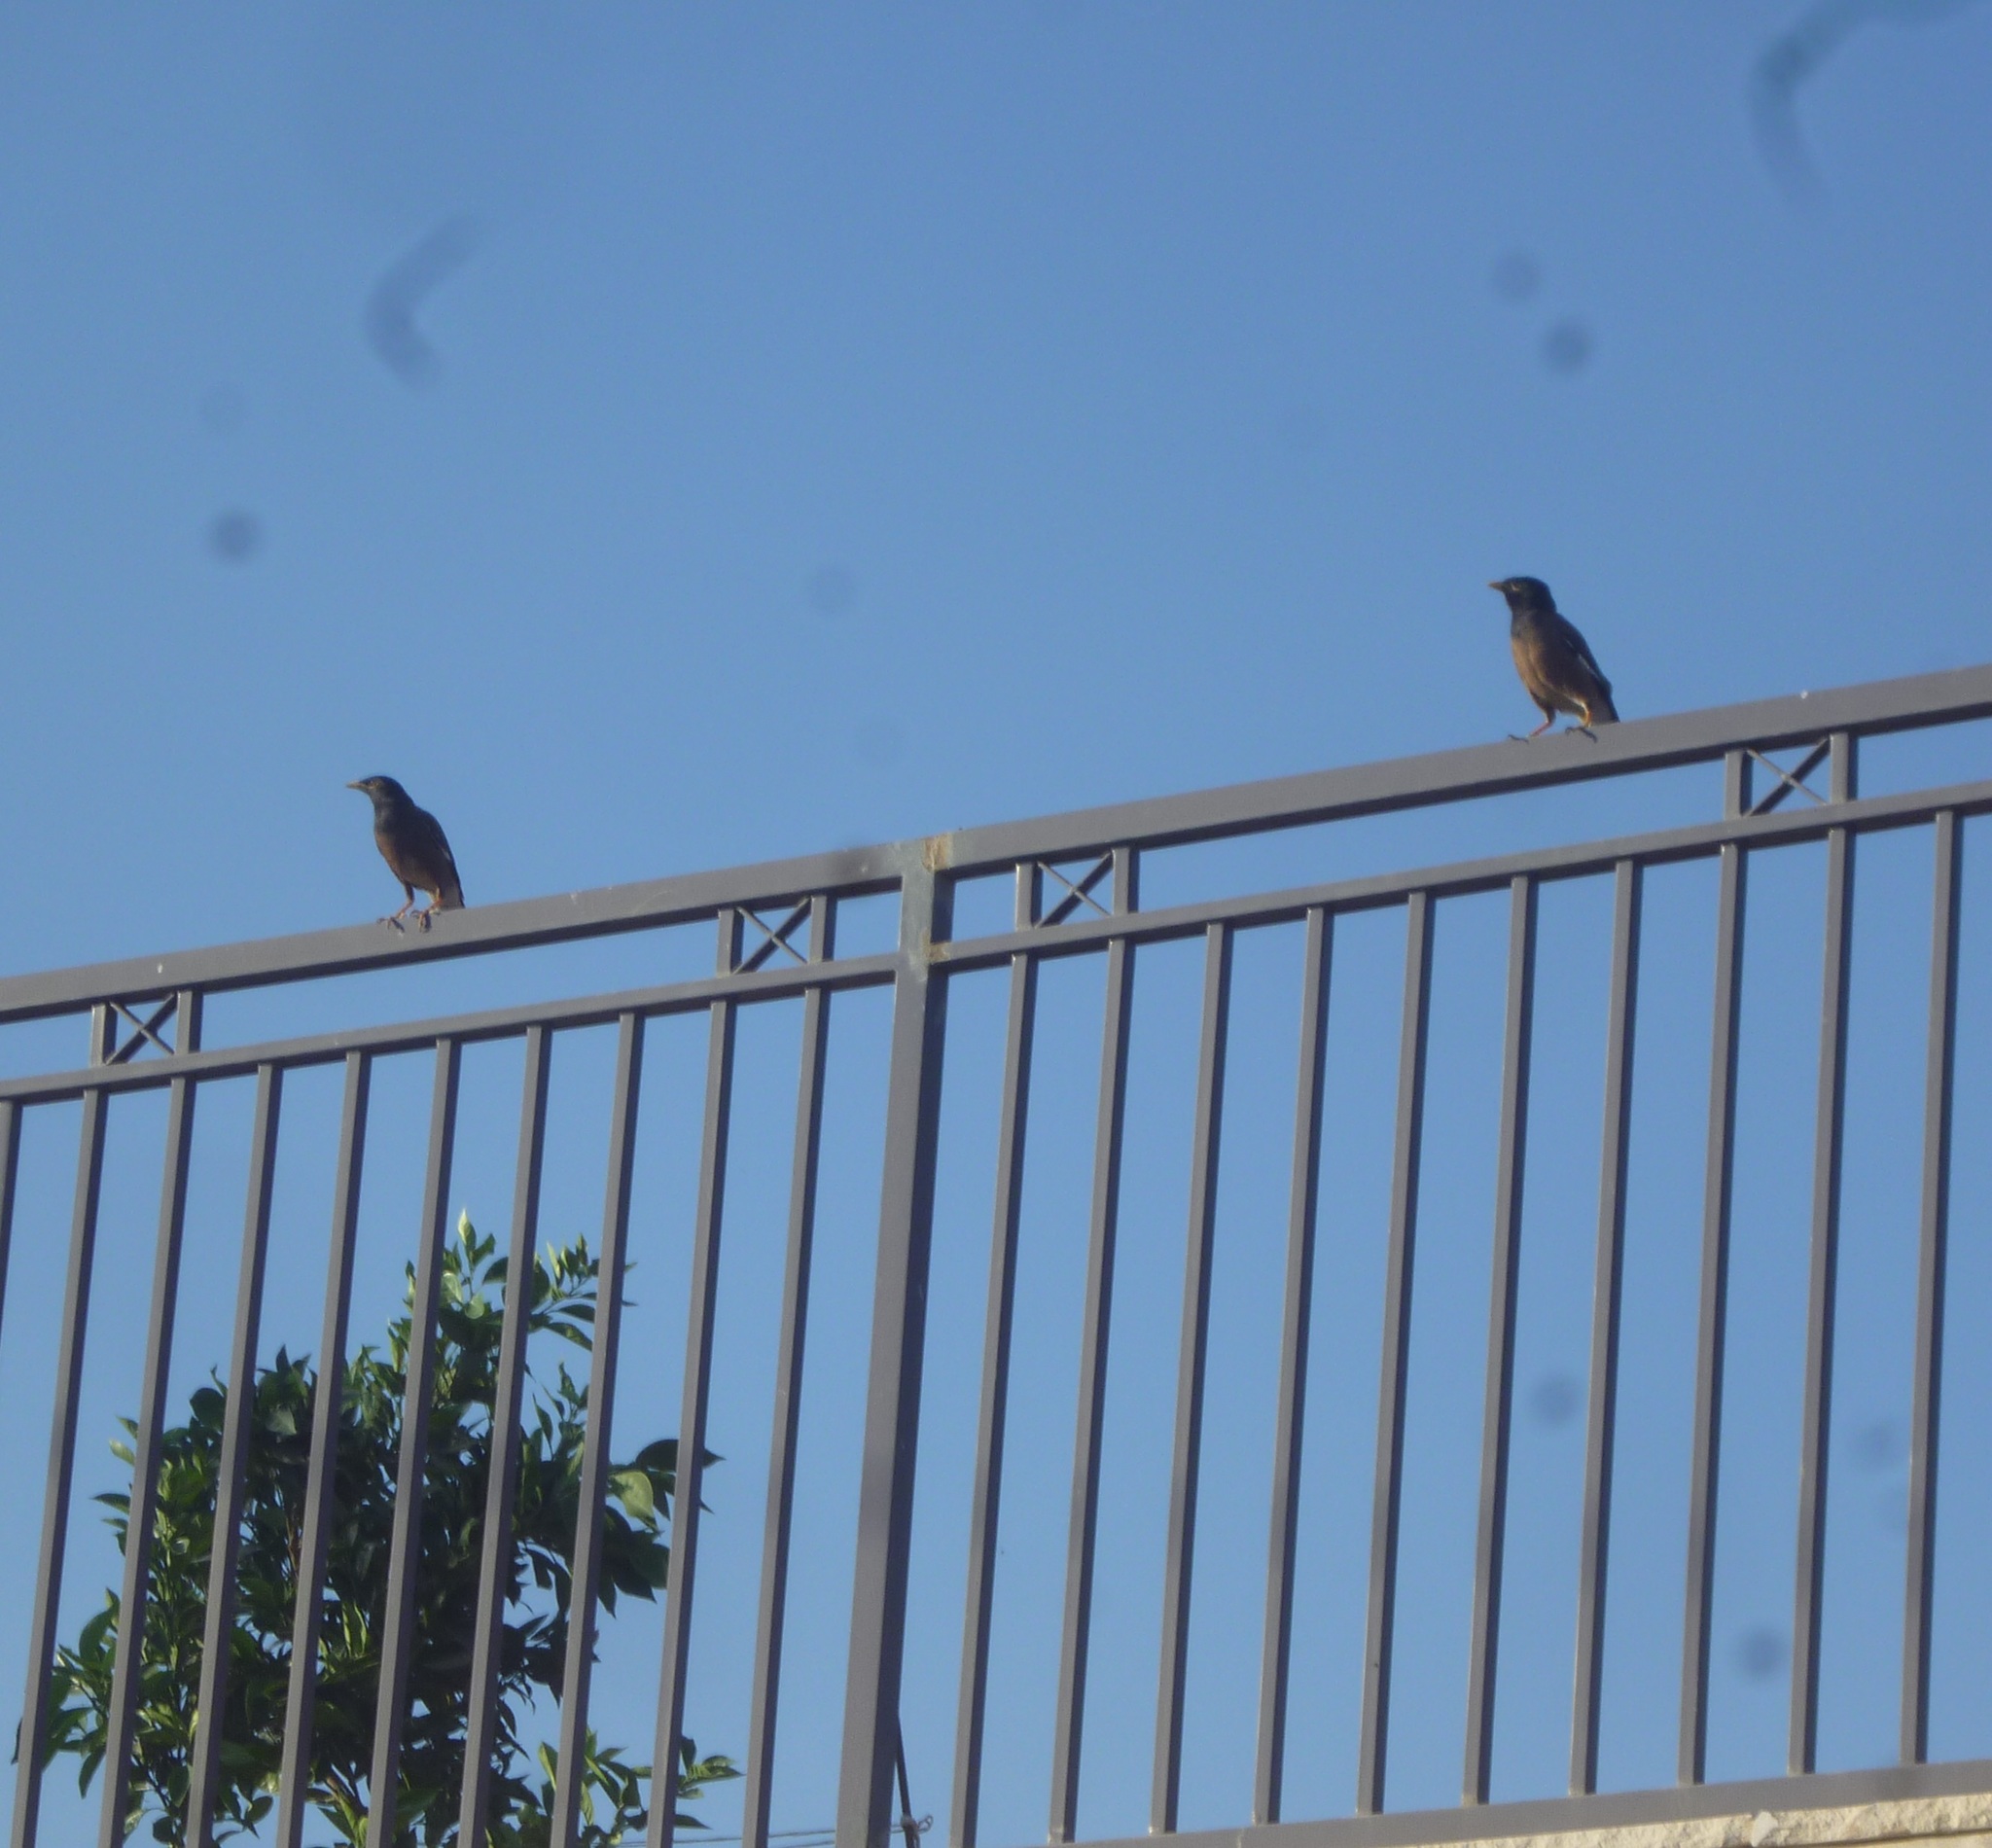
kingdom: Animalia
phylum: Chordata
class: Aves
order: Passeriformes
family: Sturnidae
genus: Acridotheres
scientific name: Acridotheres tristis
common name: Common myna
